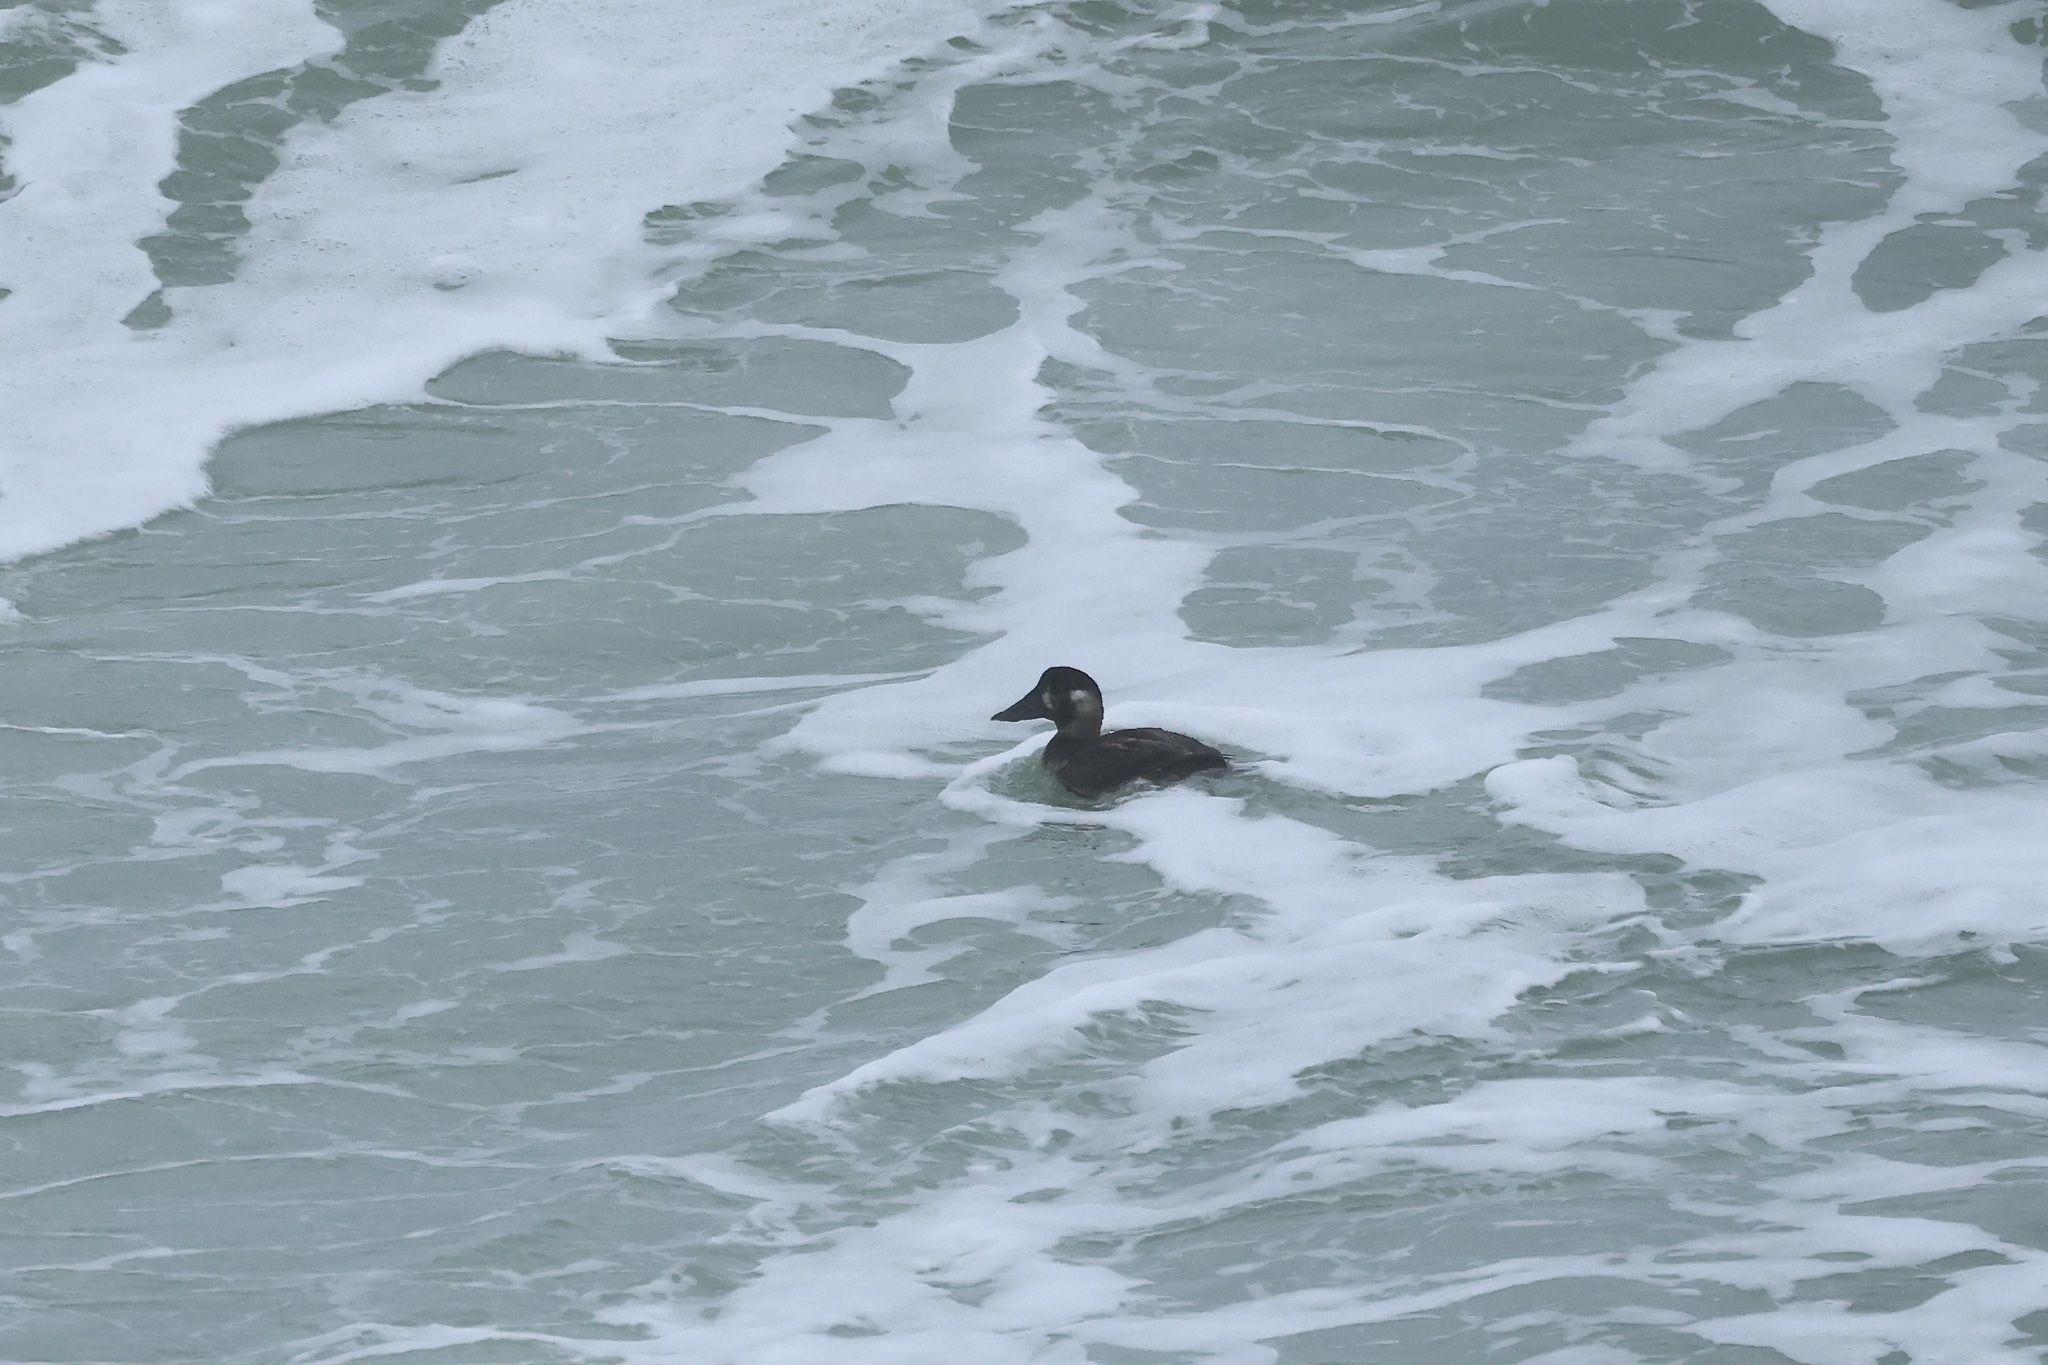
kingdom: Animalia
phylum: Chordata
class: Aves
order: Anseriformes
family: Anatidae
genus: Melanitta
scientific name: Melanitta perspicillata
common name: Surf scoter
